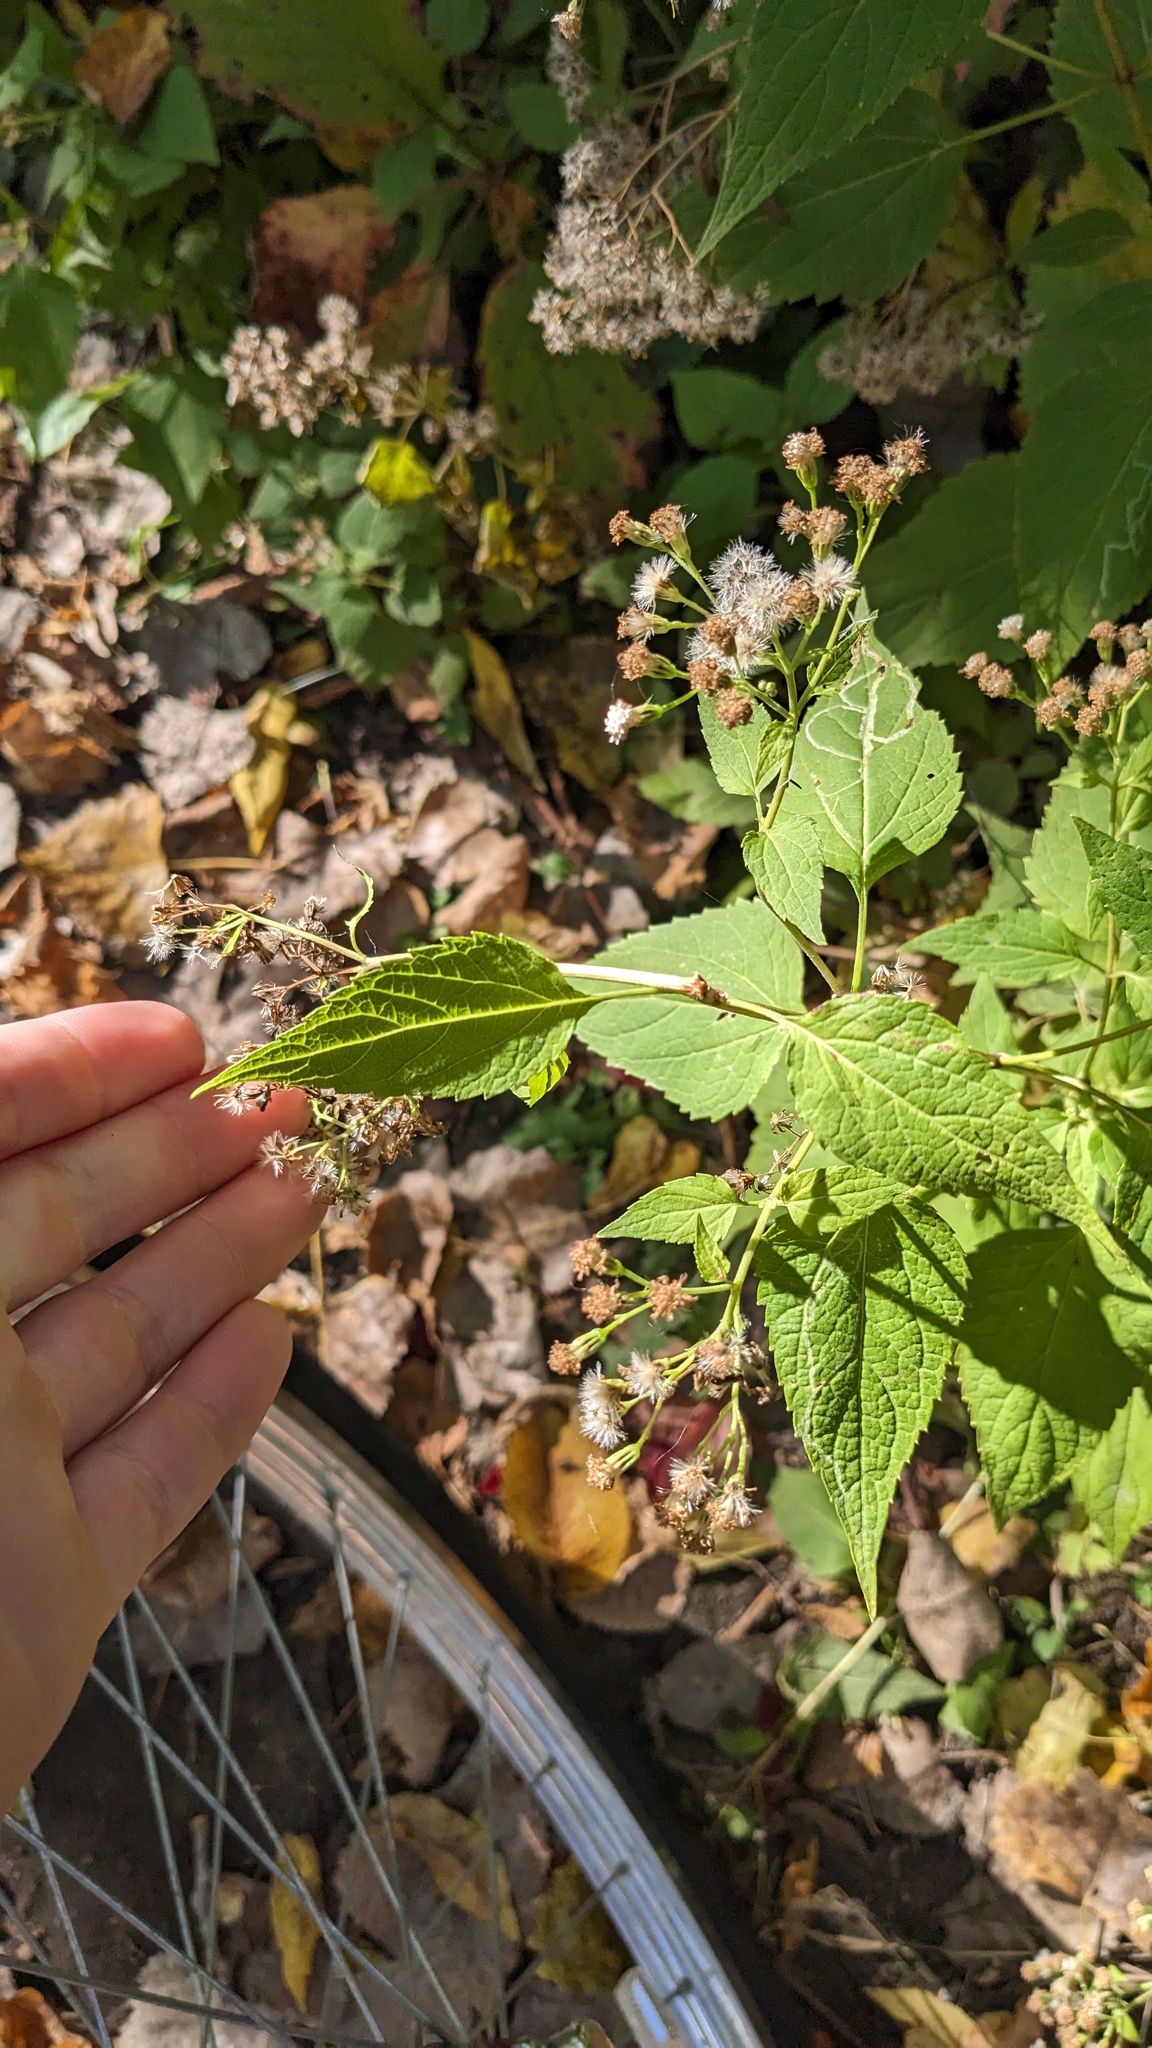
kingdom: Plantae
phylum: Tracheophyta
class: Magnoliopsida
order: Asterales
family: Asteraceae
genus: Ageratina
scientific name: Ageratina altissima
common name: White snakeroot
